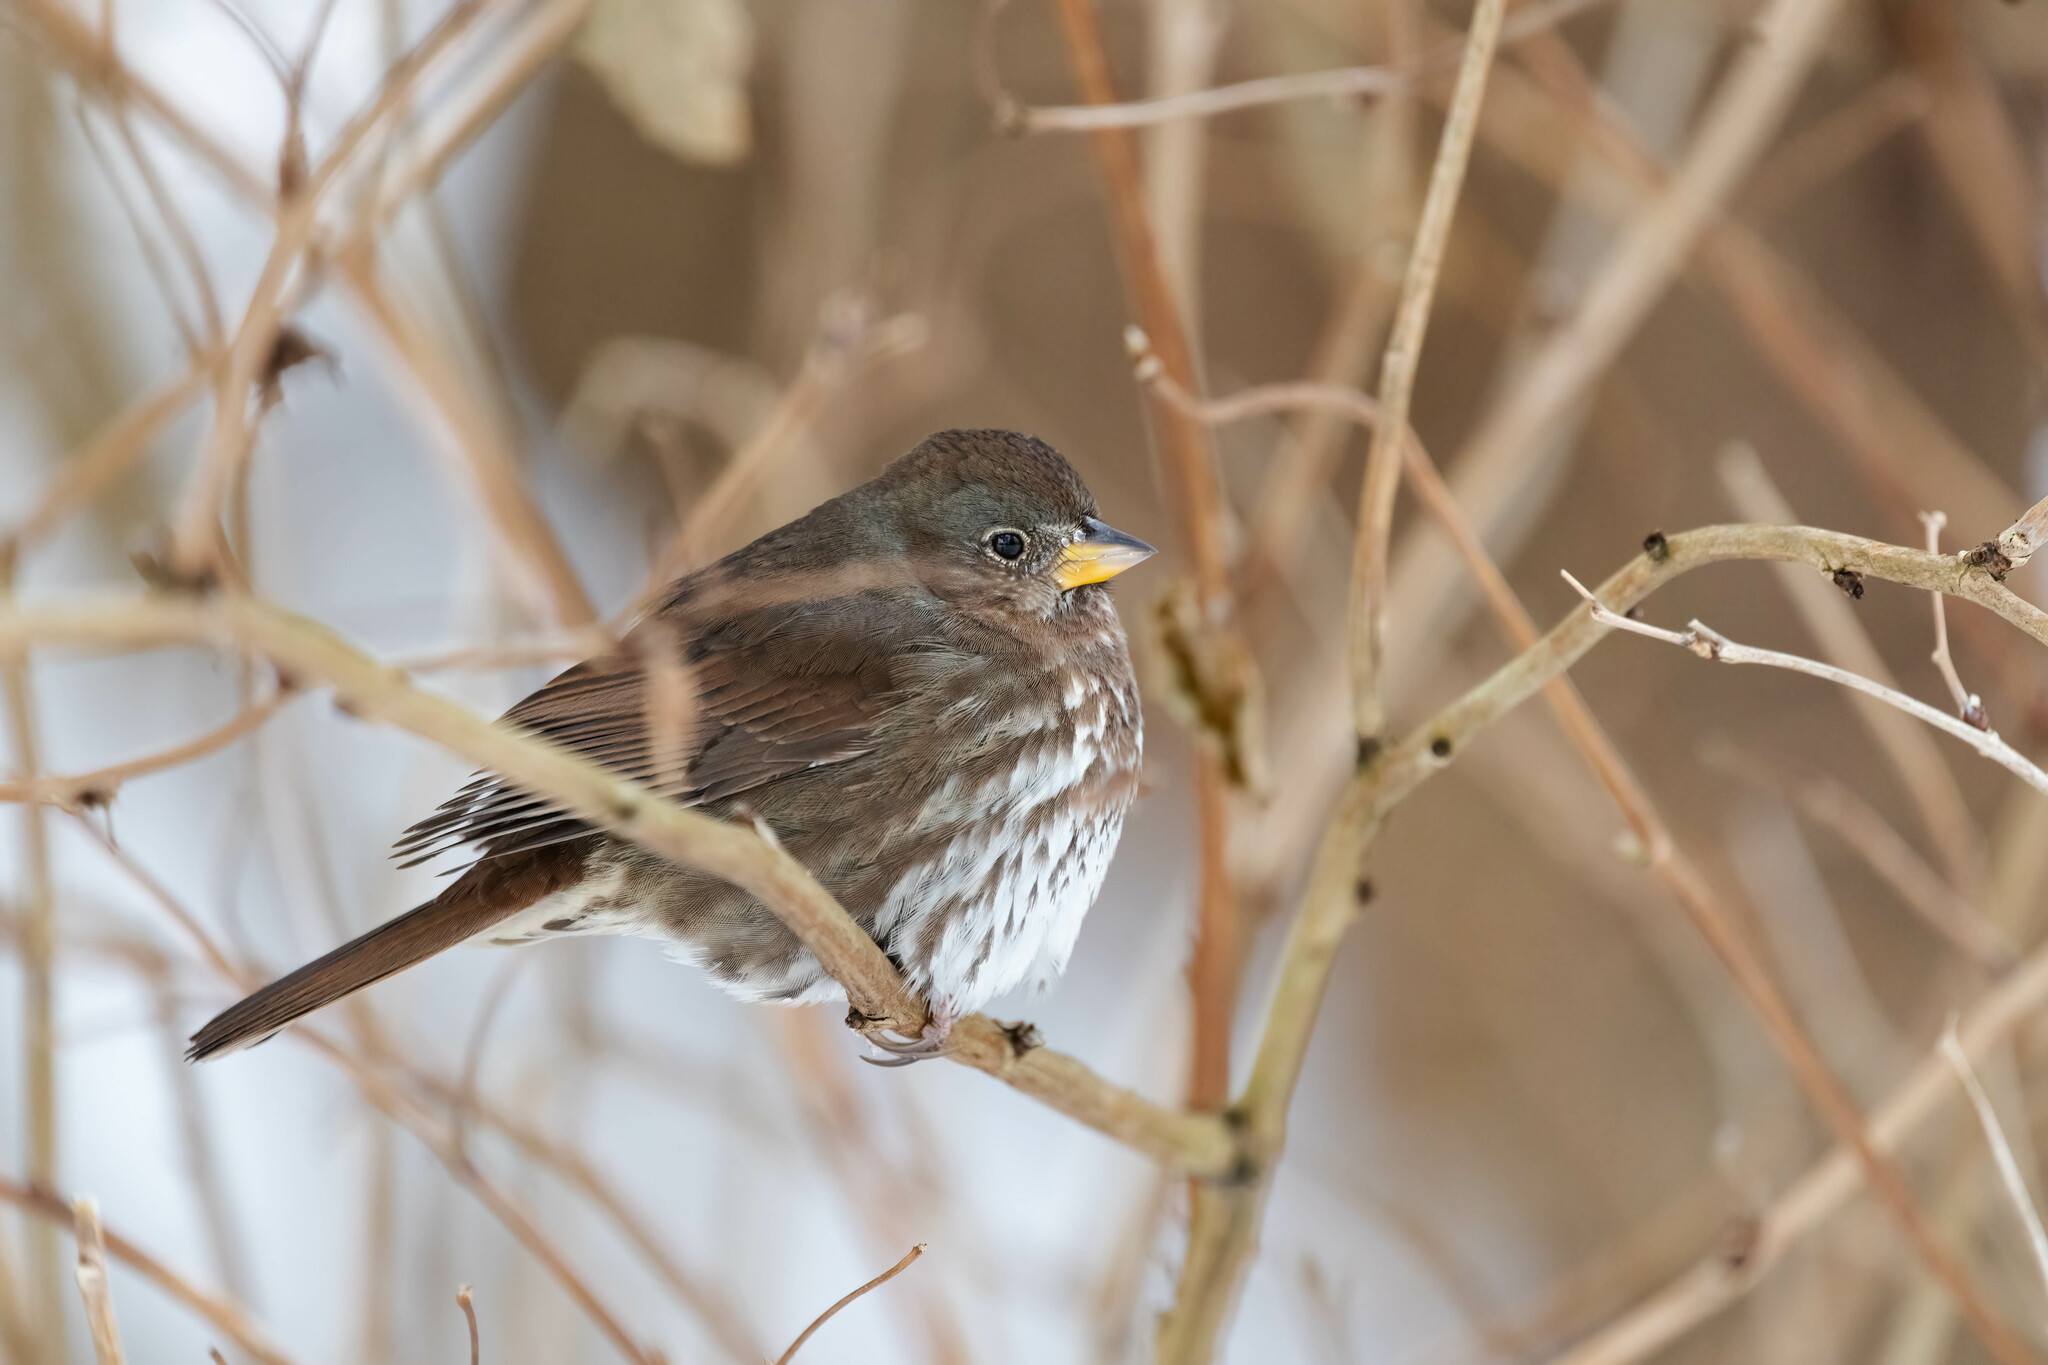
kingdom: Animalia
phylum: Chordata
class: Aves
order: Passeriformes
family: Passerellidae
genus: Passerella
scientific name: Passerella iliaca
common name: Fox sparrow
